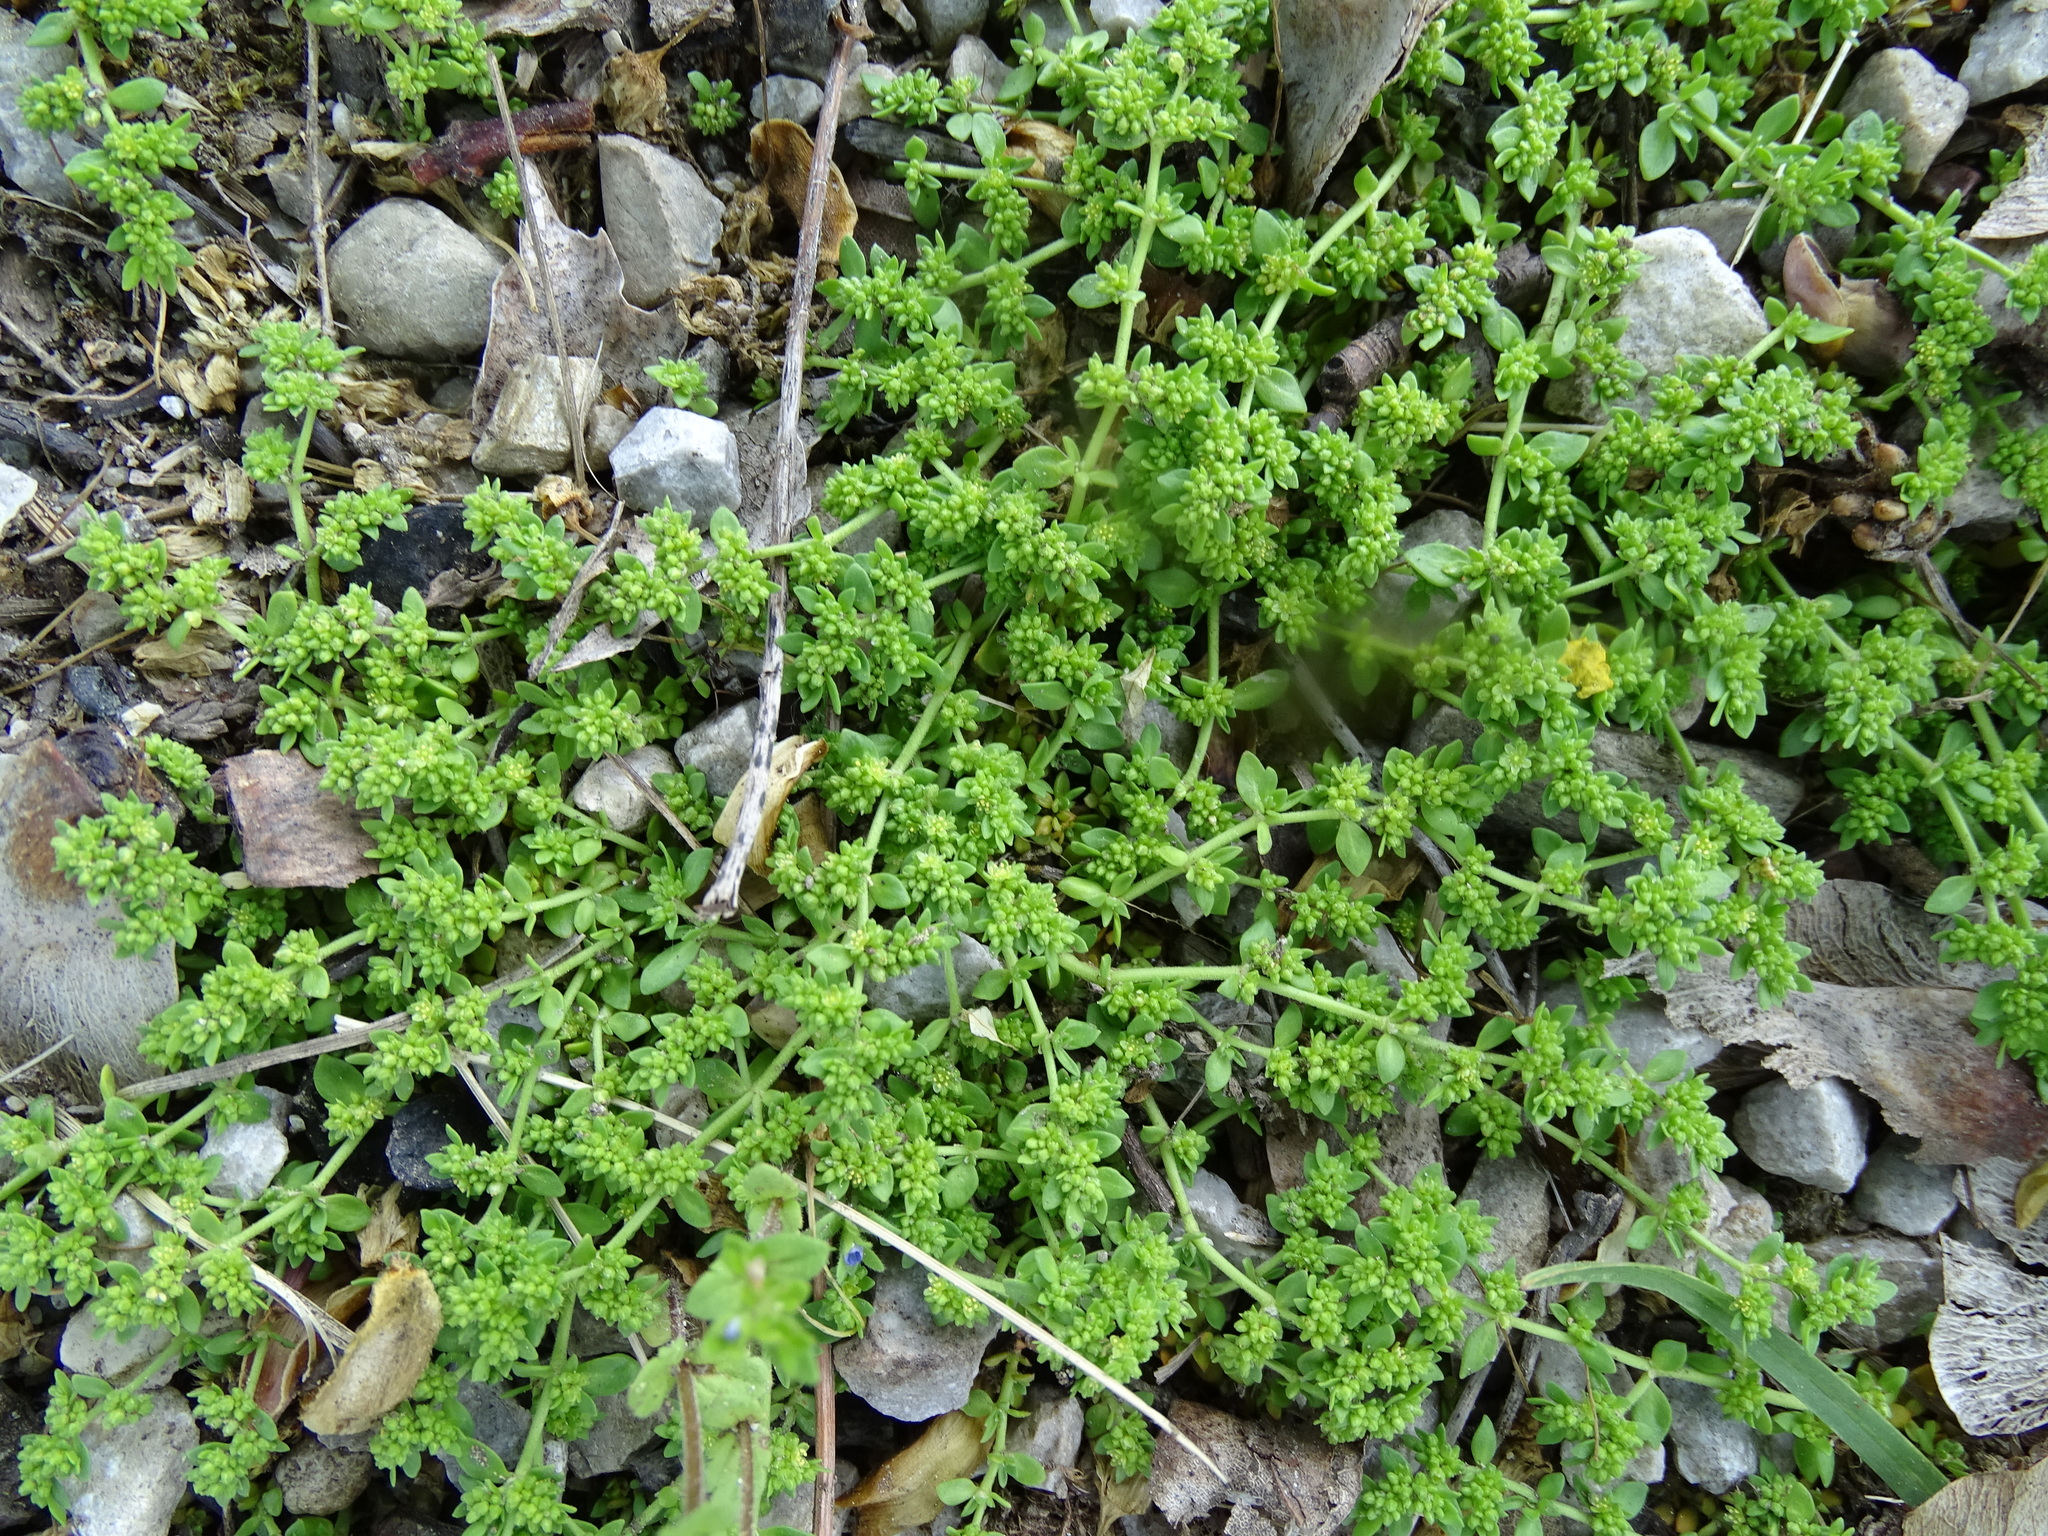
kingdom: Plantae
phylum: Tracheophyta
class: Magnoliopsida
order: Caryophyllales
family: Caryophyllaceae
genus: Herniaria
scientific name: Herniaria glabra
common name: Smooth rupturewort
